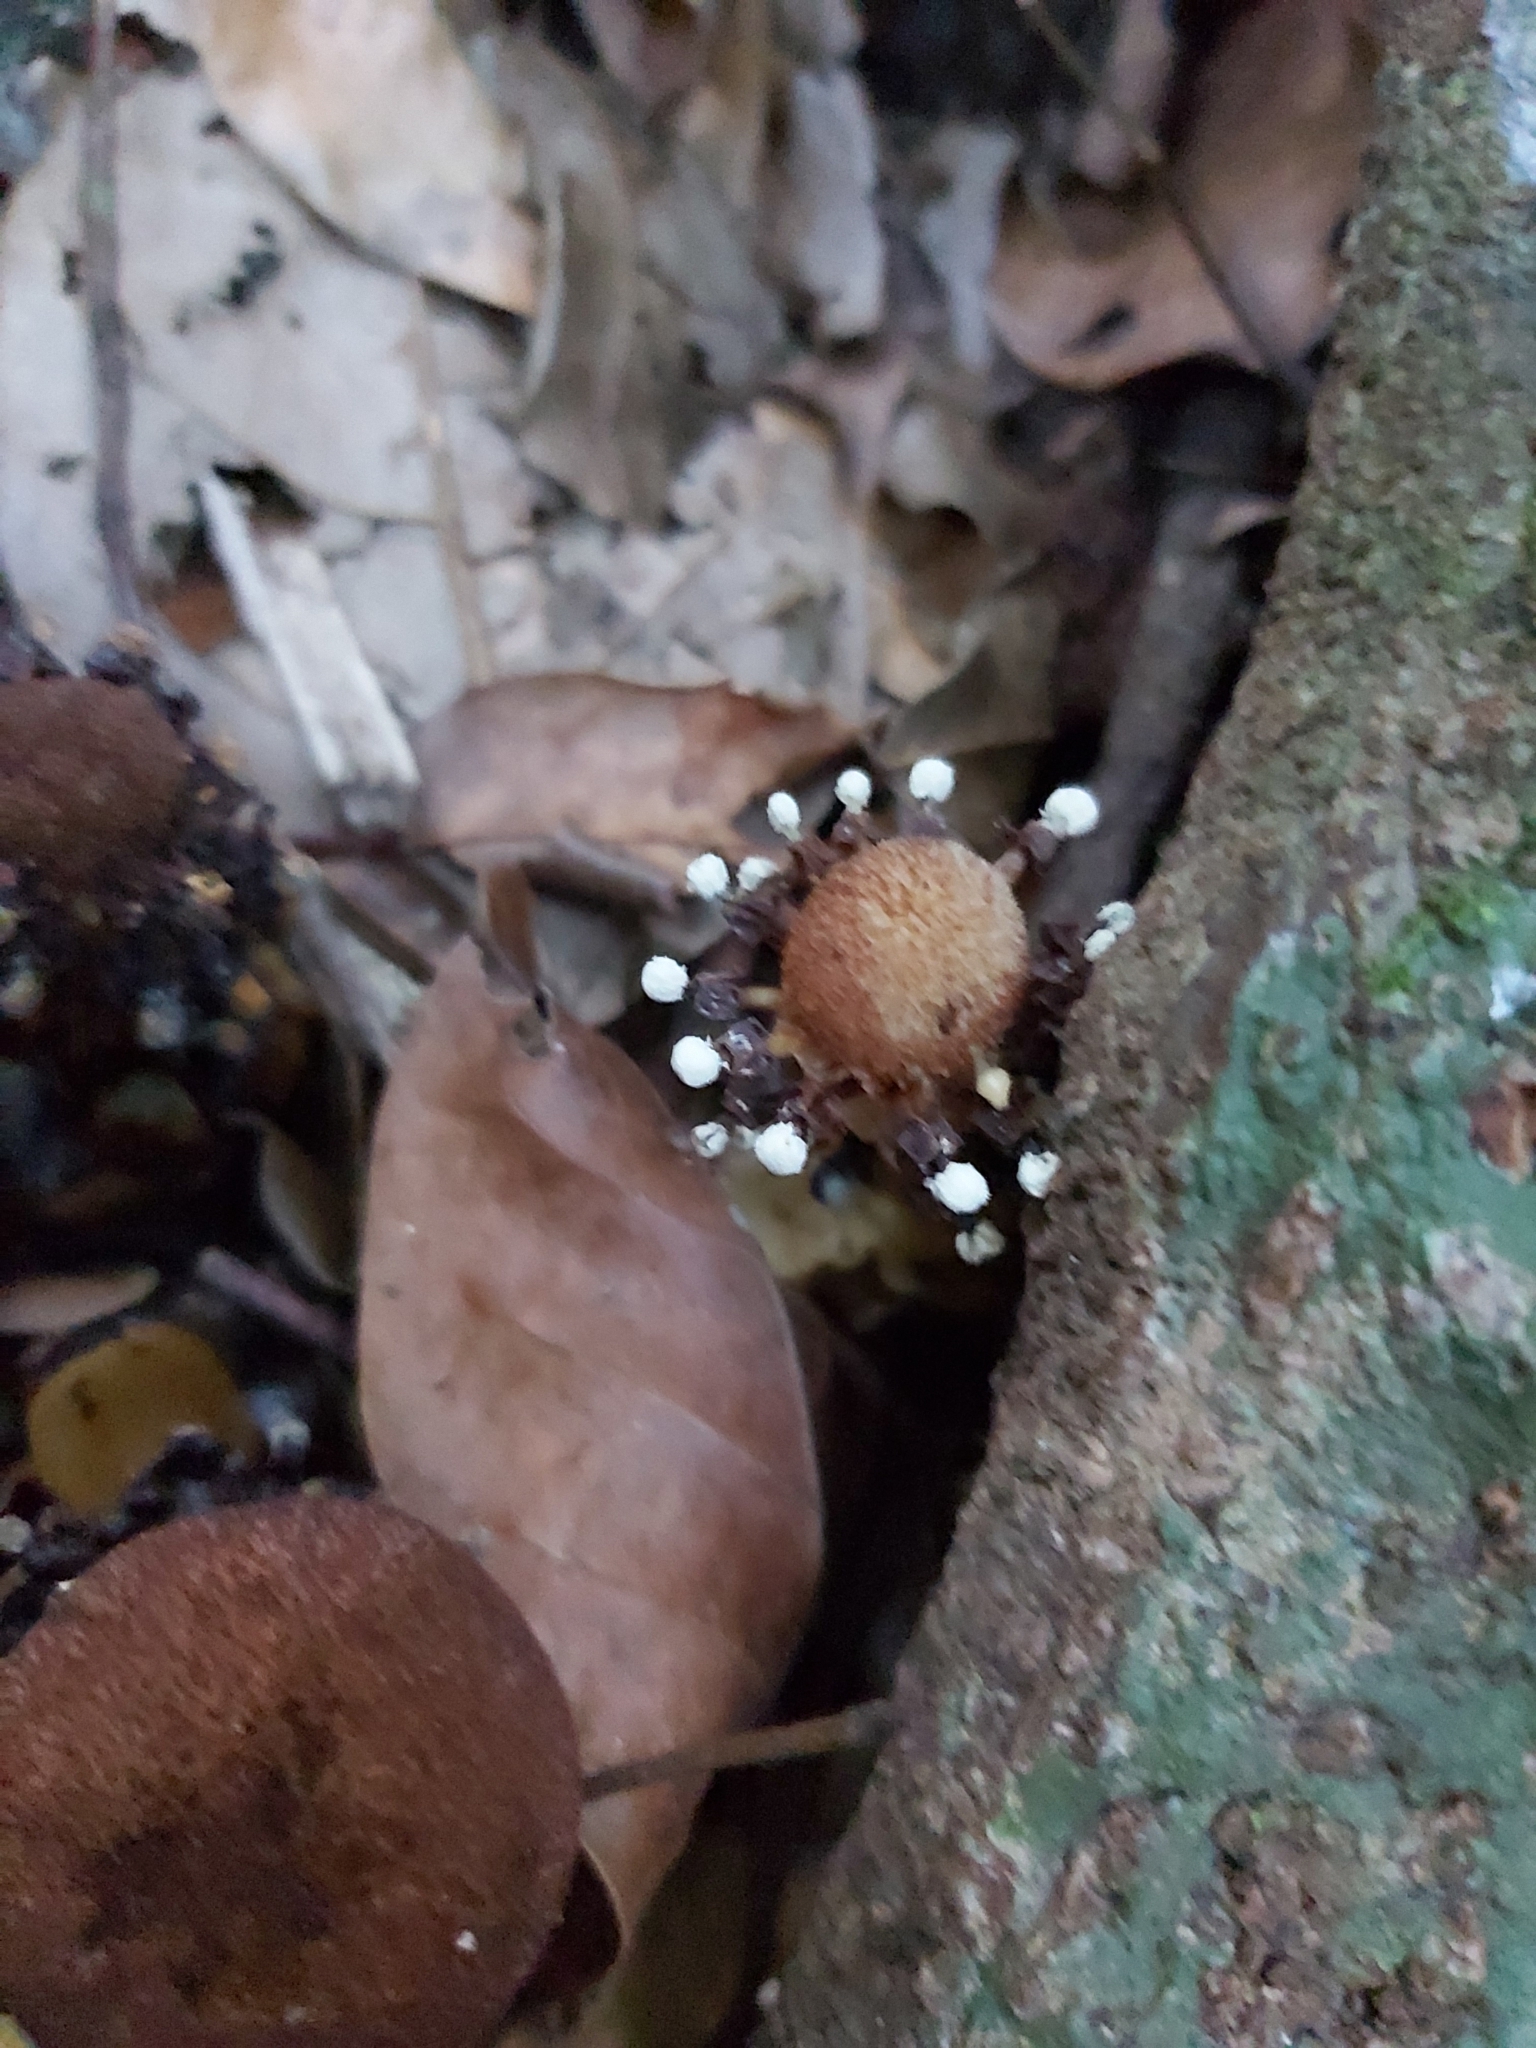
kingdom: Plantae
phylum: Tracheophyta
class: Magnoliopsida
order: Santalales
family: Balanophoraceae
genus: Balanophora
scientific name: Balanophora fungosa
